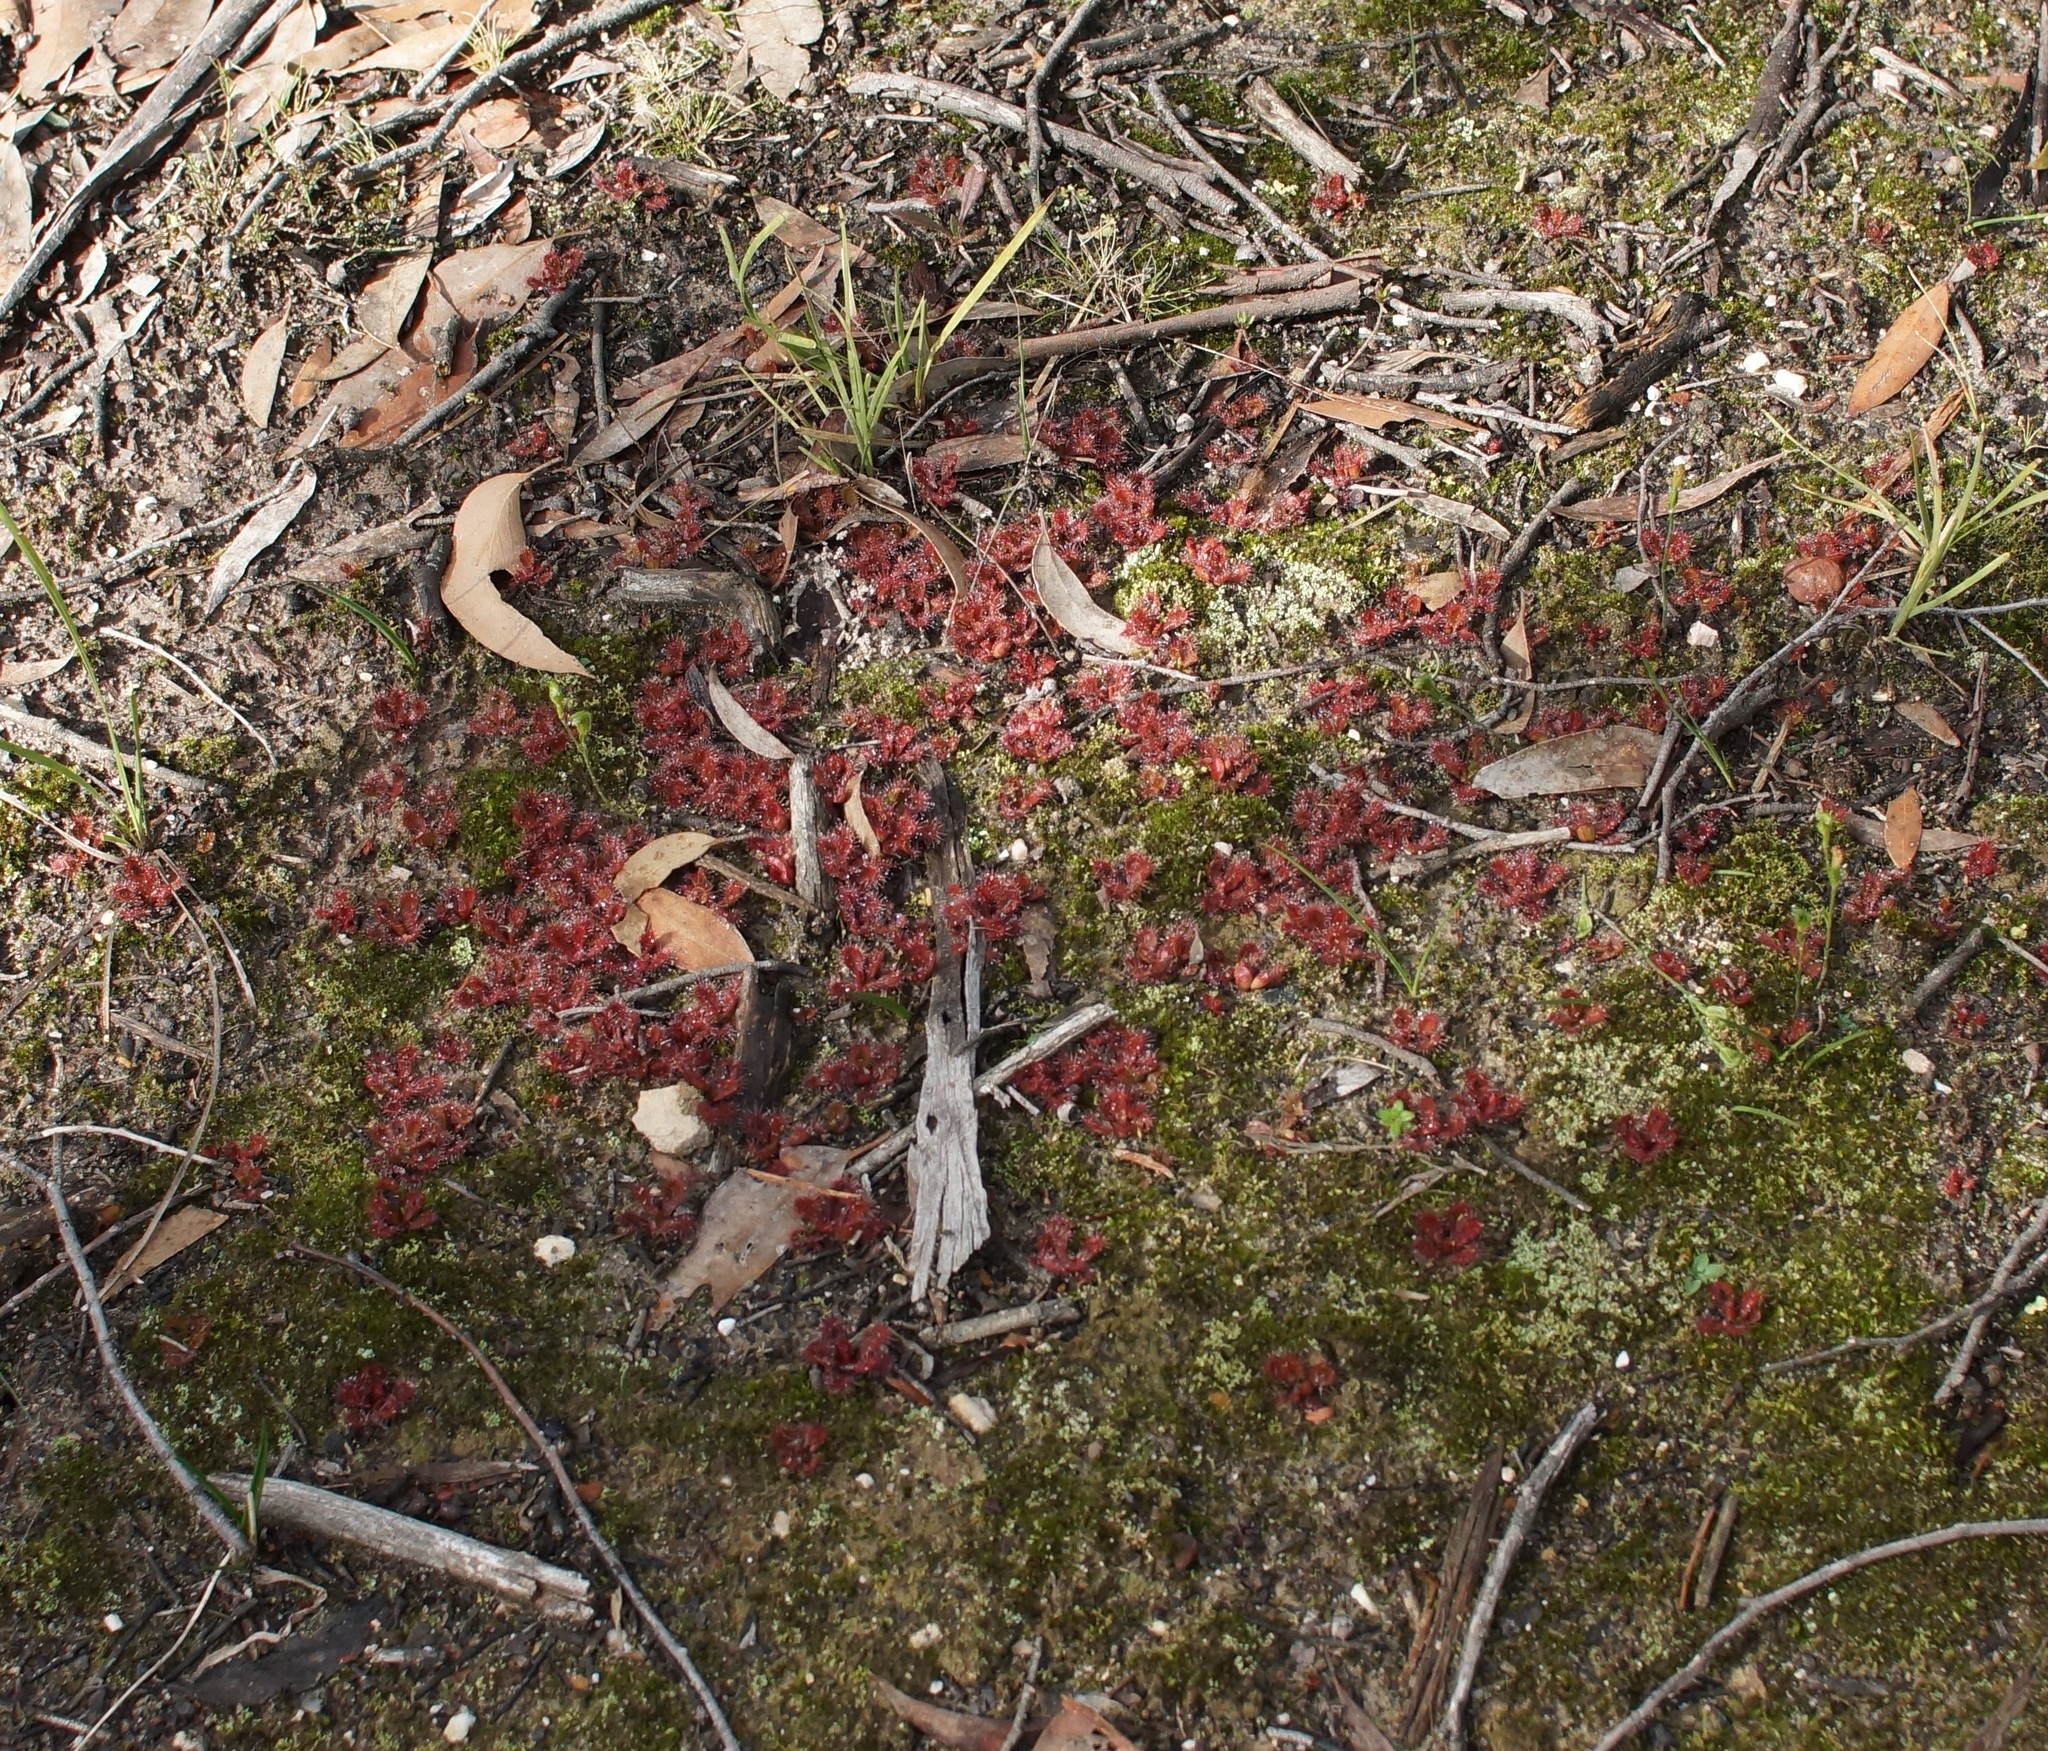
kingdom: Plantae
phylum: Tracheophyta
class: Magnoliopsida
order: Caryophyllales
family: Droseraceae
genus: Drosera
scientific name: Drosera aberrans
